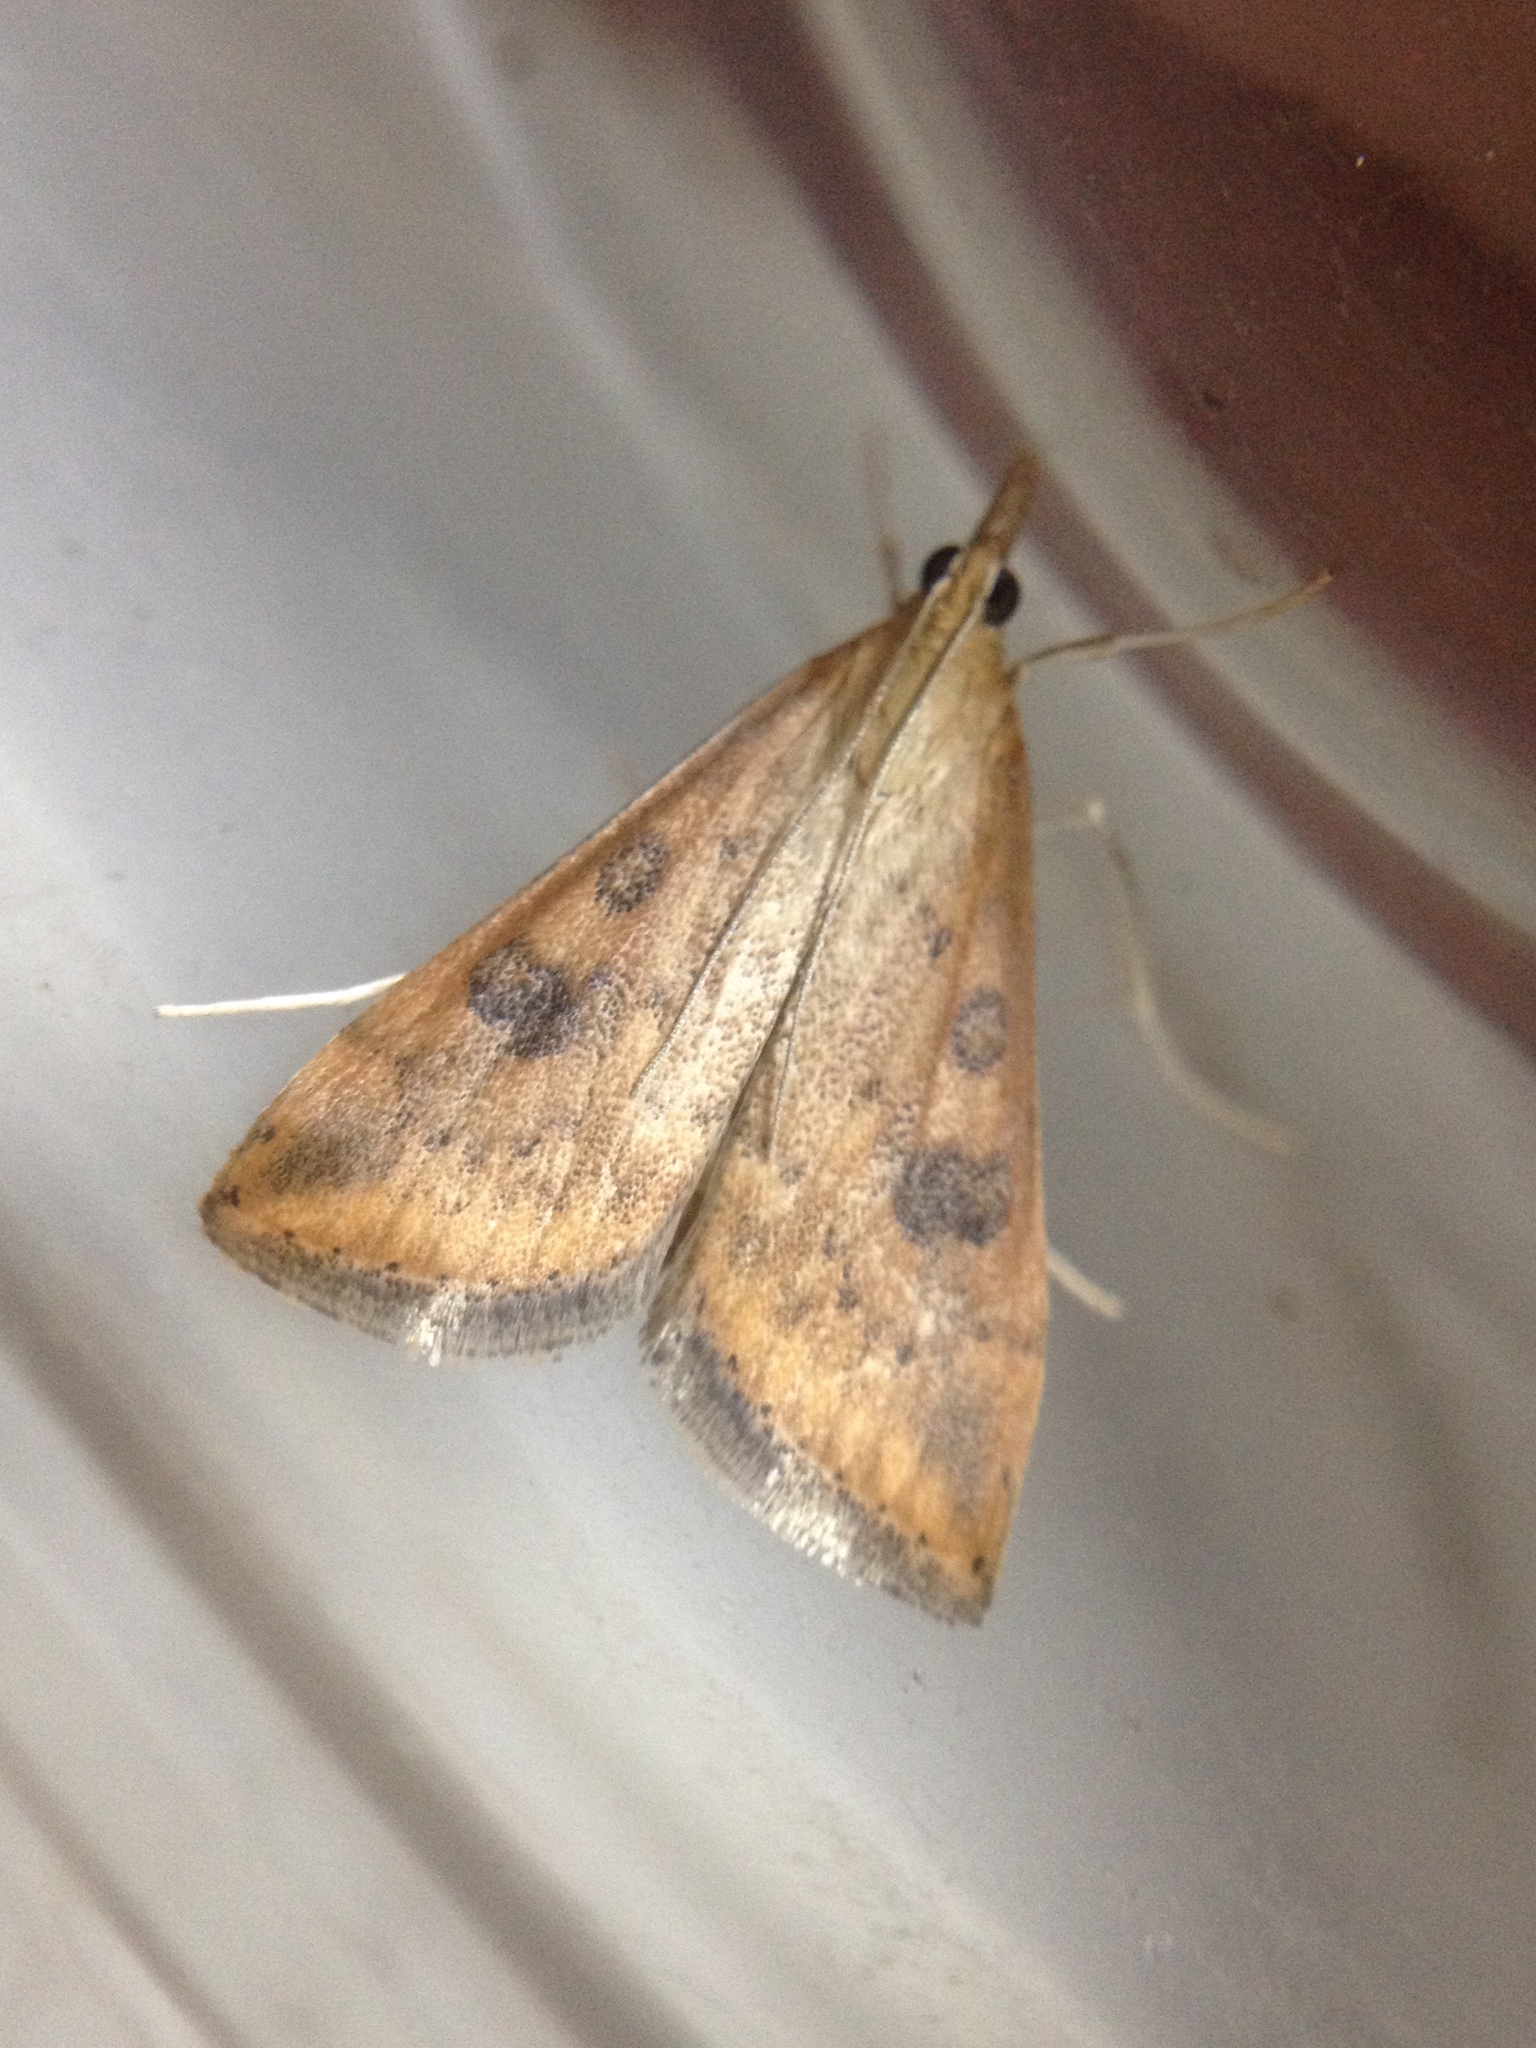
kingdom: Animalia
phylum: Arthropoda
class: Insecta
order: Lepidoptera
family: Crambidae
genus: Udea
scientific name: Udea ferrugalis
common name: Rusty dot
